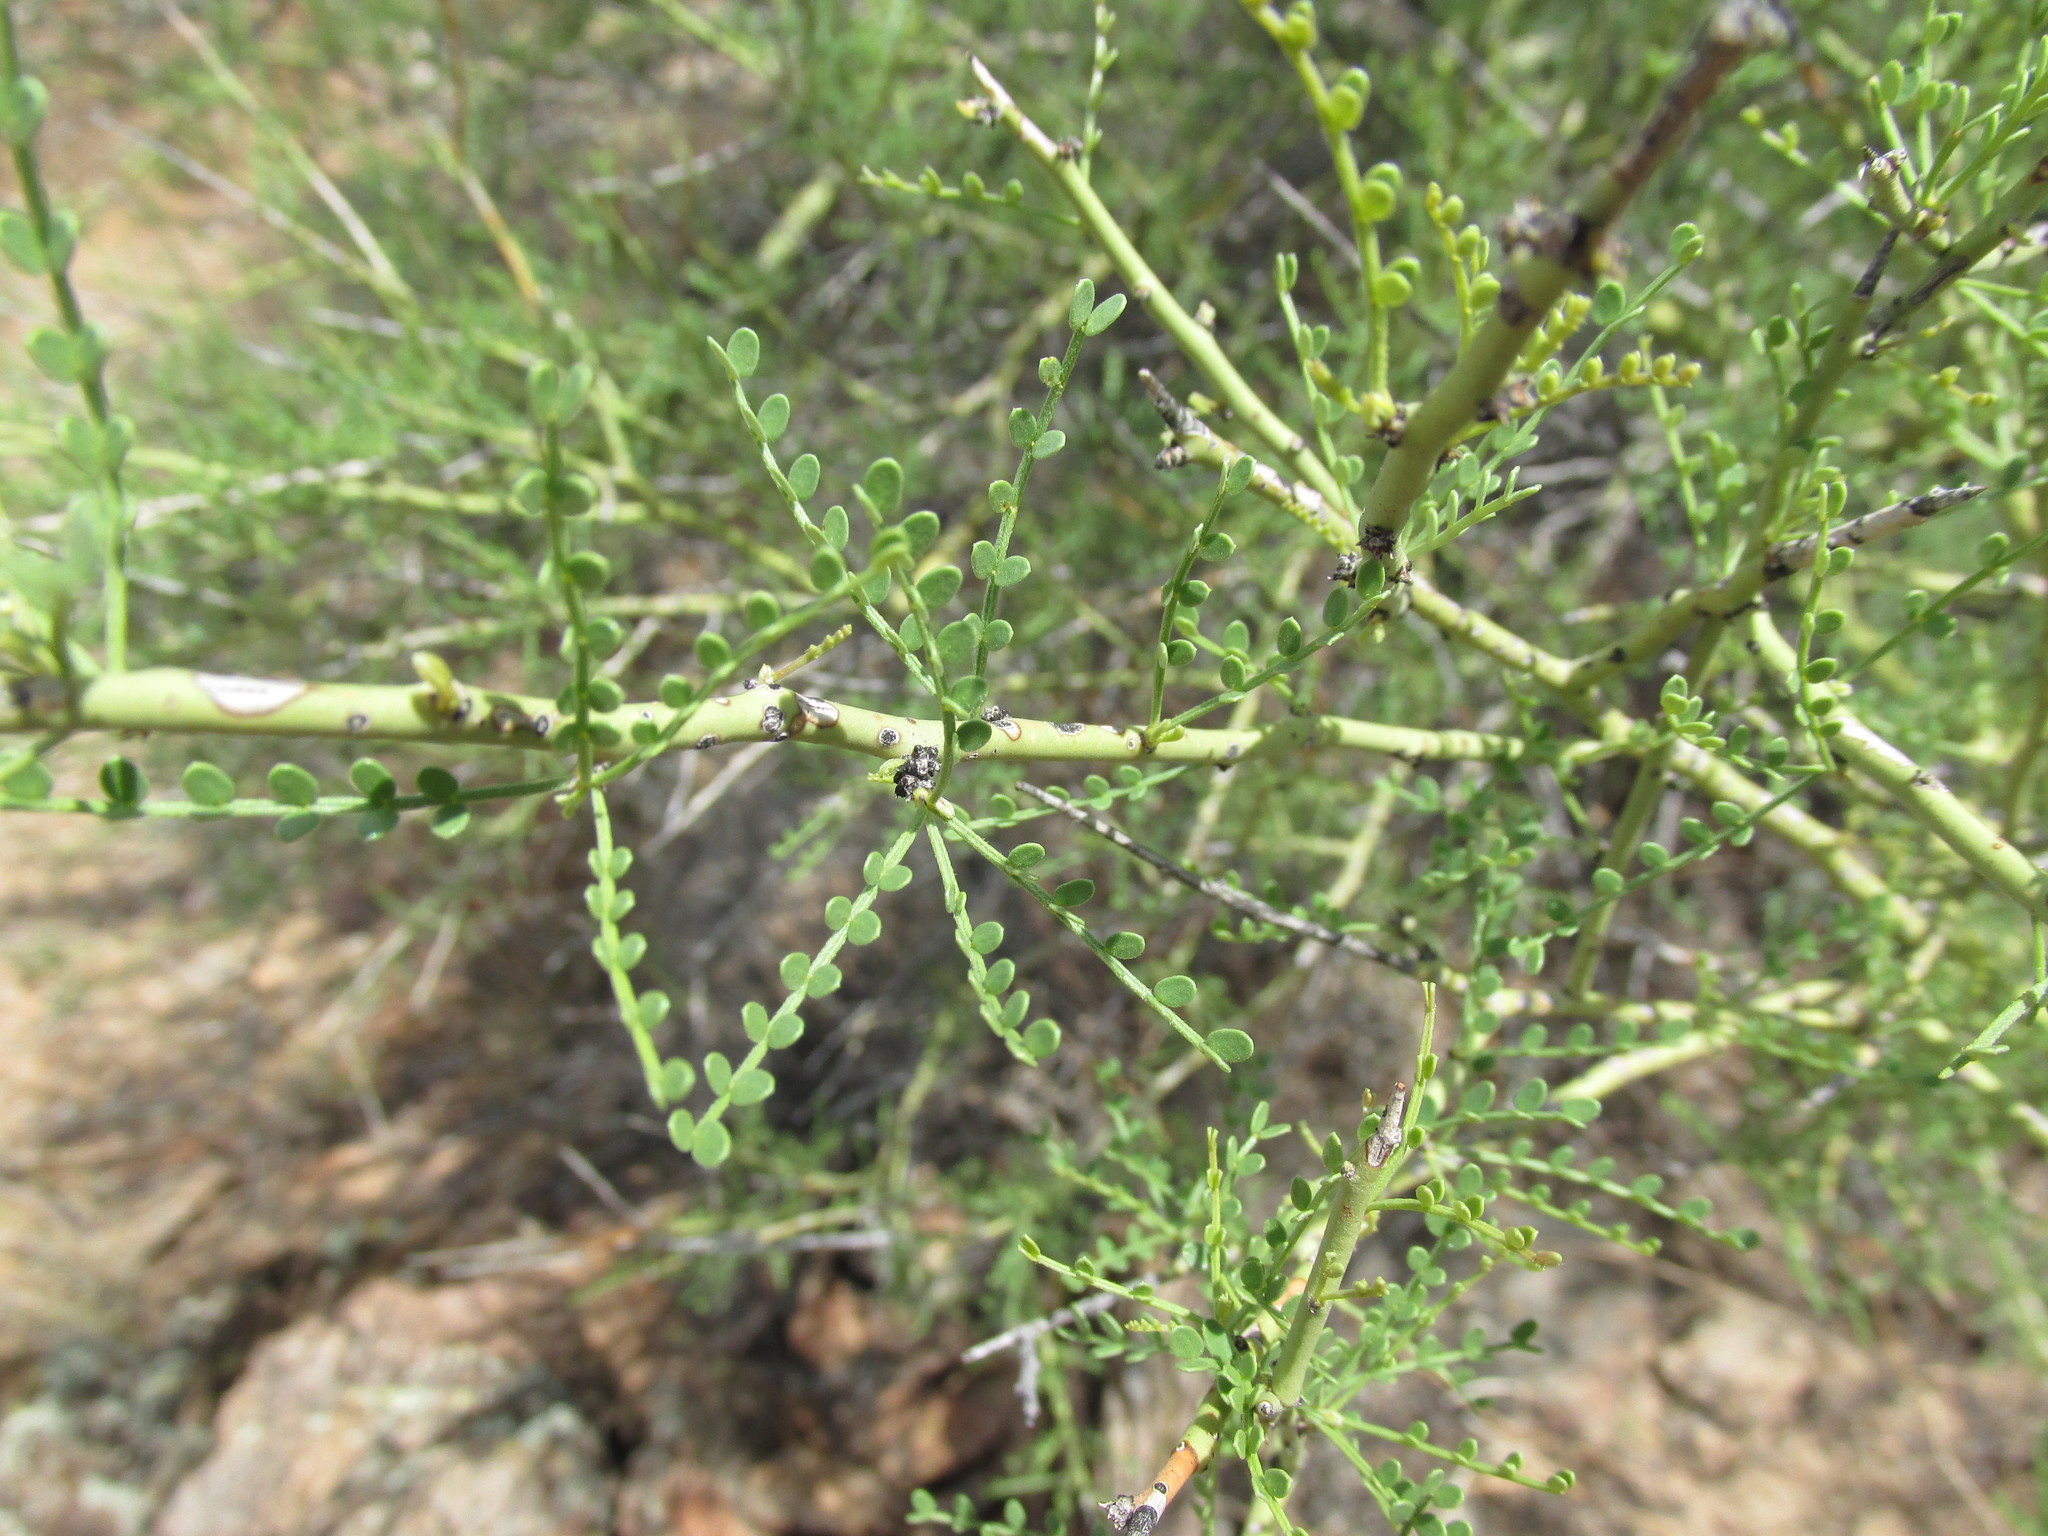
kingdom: Plantae
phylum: Tracheophyta
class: Magnoliopsida
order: Fabales
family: Fabaceae
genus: Parkinsonia
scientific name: Parkinsonia microphylla
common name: Yellow paloverde
